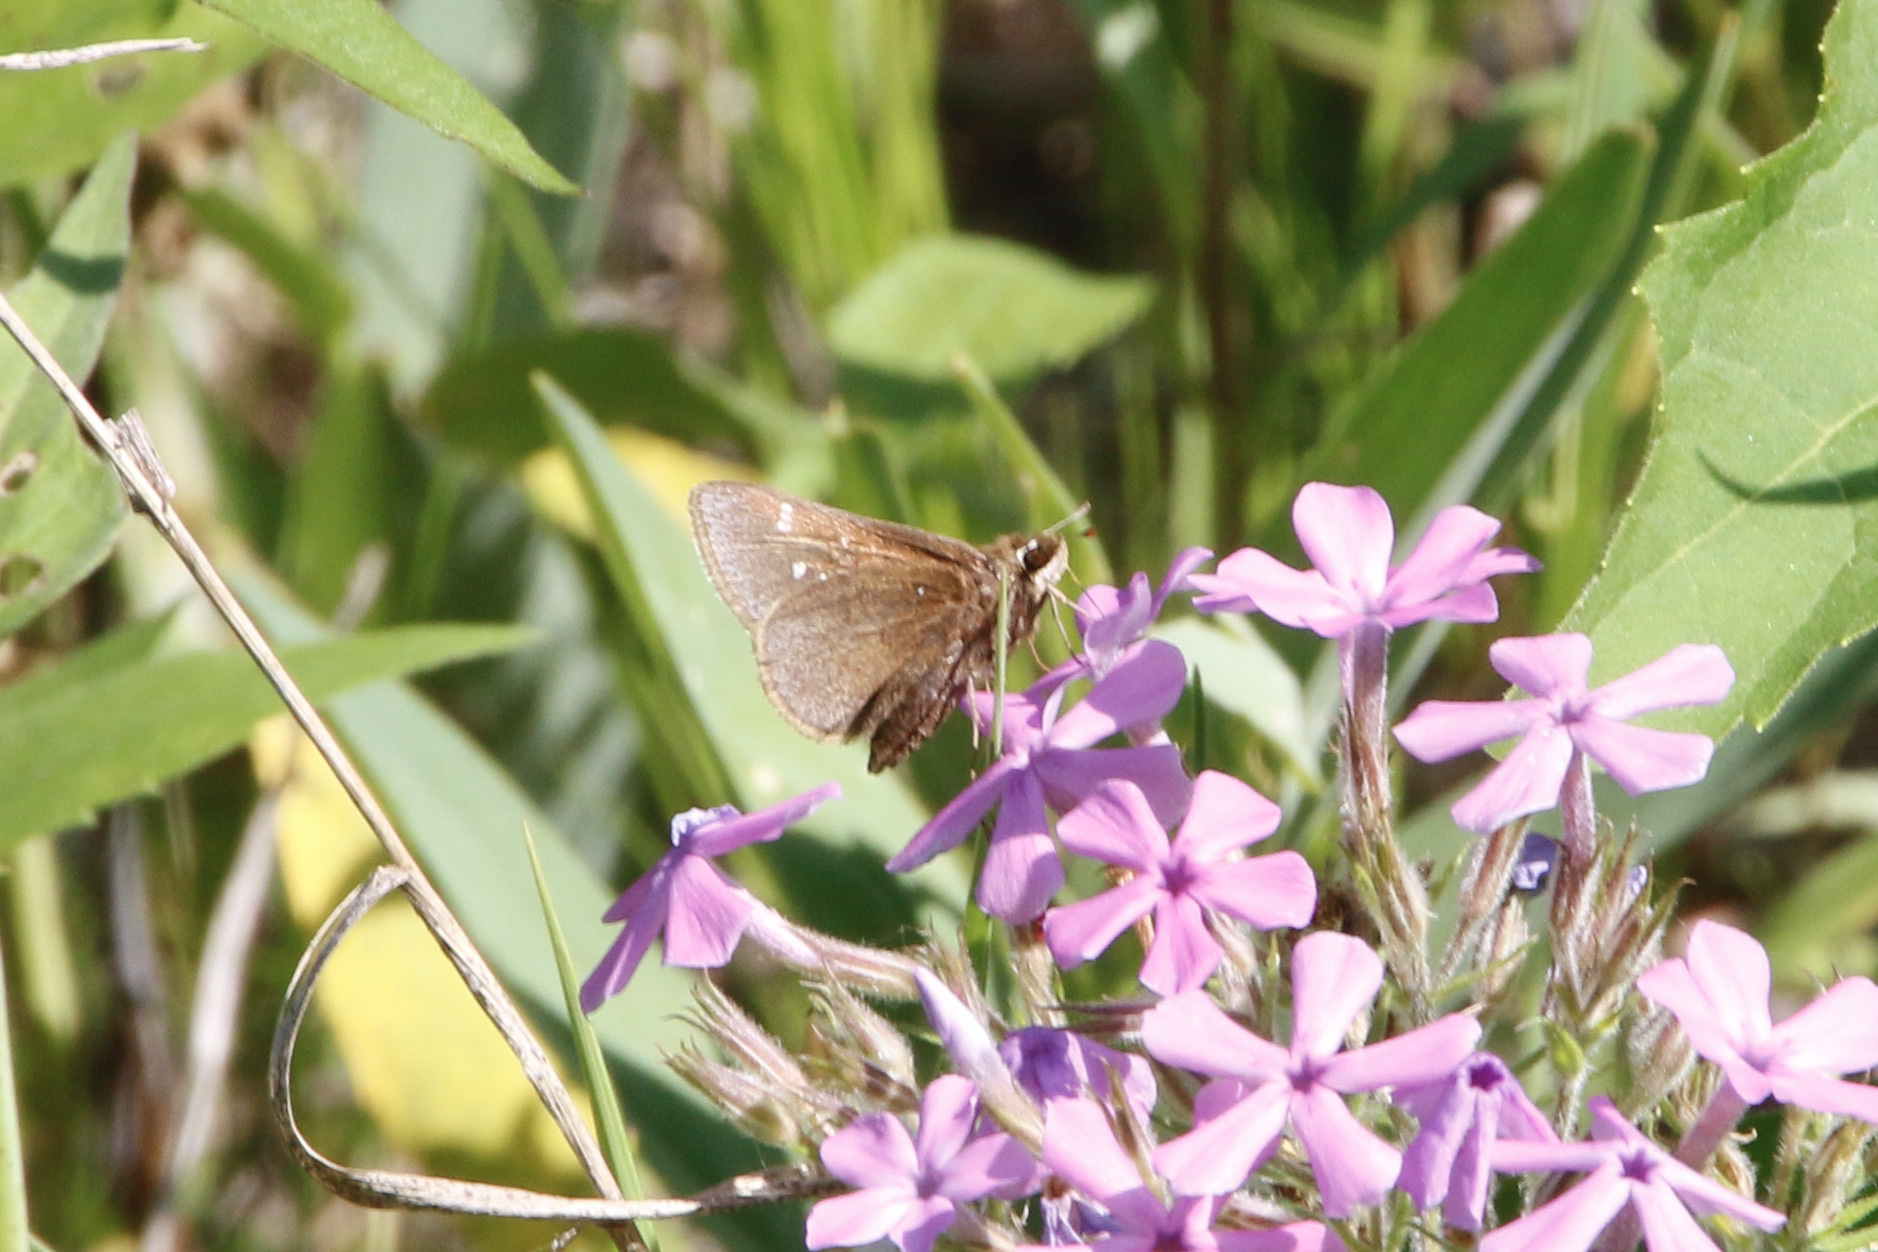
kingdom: Animalia
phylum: Arthropoda
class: Insecta
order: Lepidoptera
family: Hesperiidae
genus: Atrytonopsis
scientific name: Atrytonopsis hianna
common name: Dusted skipper
